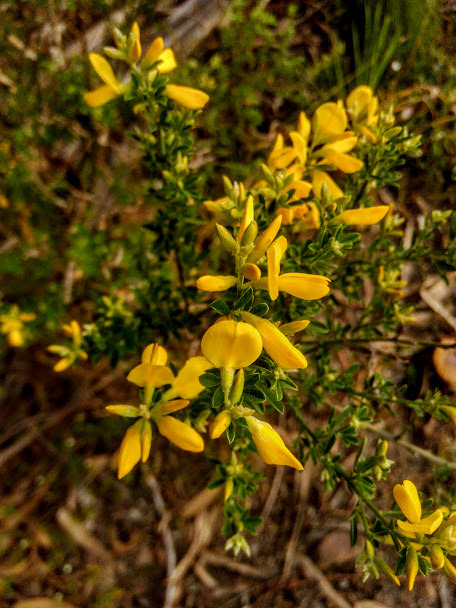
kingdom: Plantae
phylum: Tracheophyta
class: Magnoliopsida
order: Fabales
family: Fabaceae
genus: Genista
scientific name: Genista monspessulana
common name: Montpellier broom
